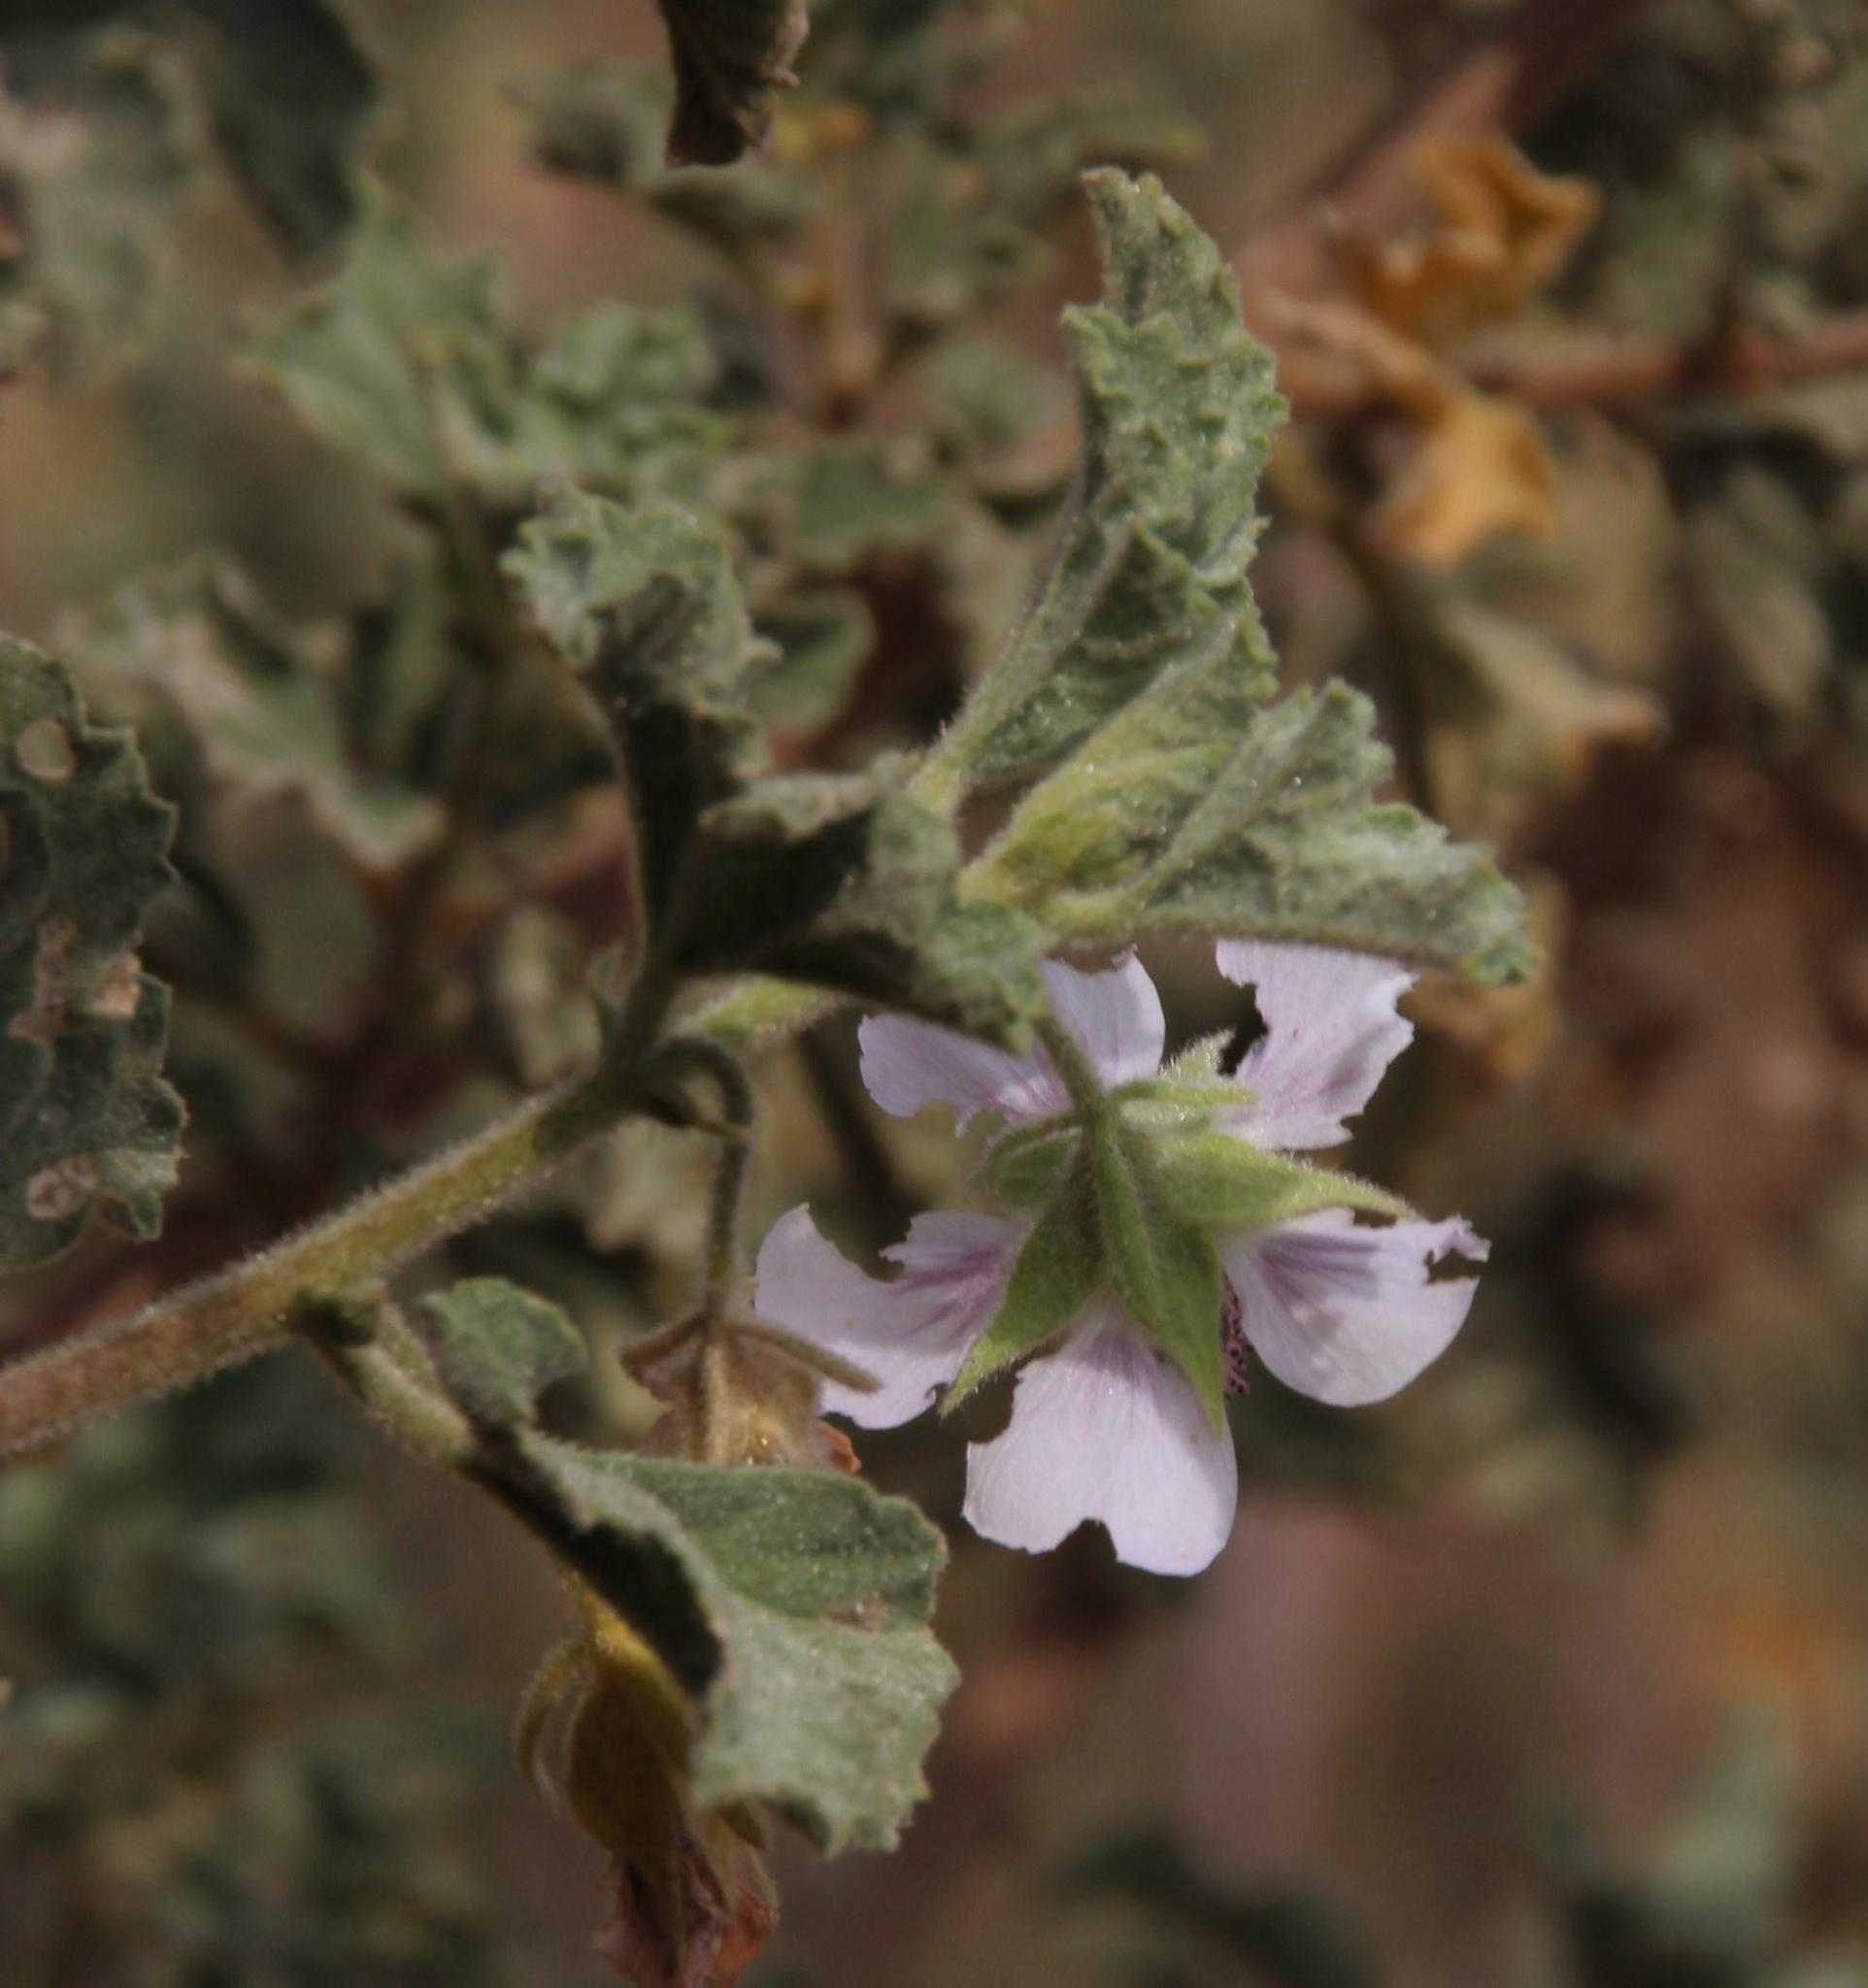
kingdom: Plantae
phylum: Tracheophyta
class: Magnoliopsida
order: Malvales
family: Malvaceae
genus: Anisodontea
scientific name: Anisodontea triloba
